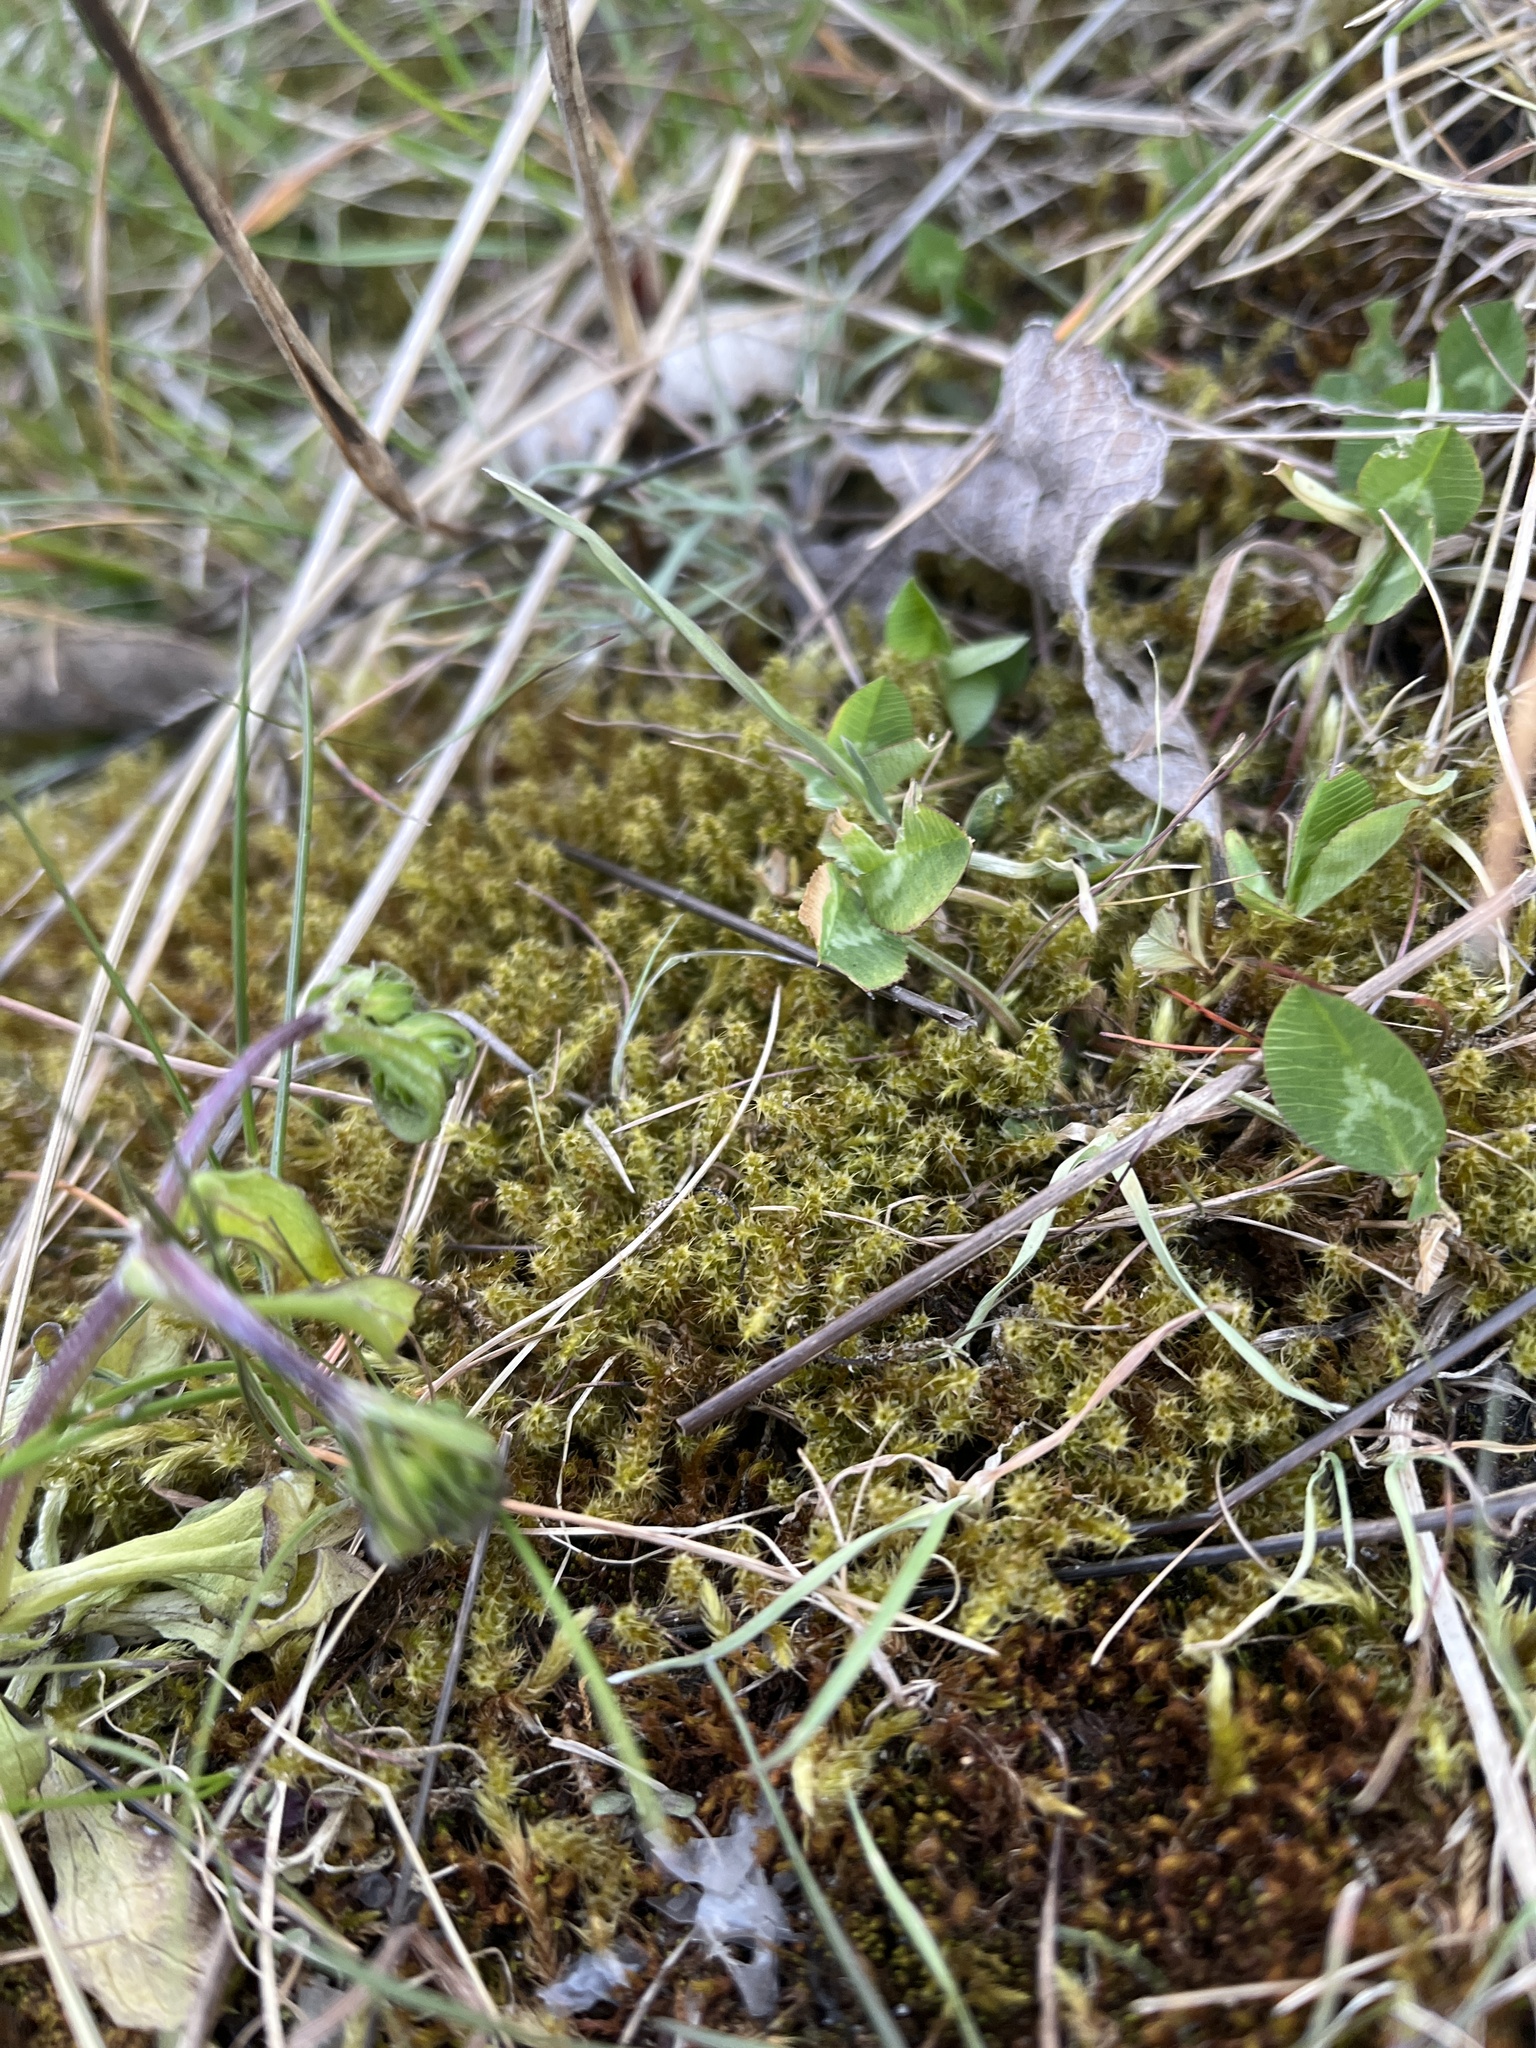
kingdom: Plantae
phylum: Bryophyta
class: Bryopsida
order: Hypnales
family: Hylocomiaceae
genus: Rhytidiadelphus
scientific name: Rhytidiadelphus squarrosus
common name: Springy turf-moss
